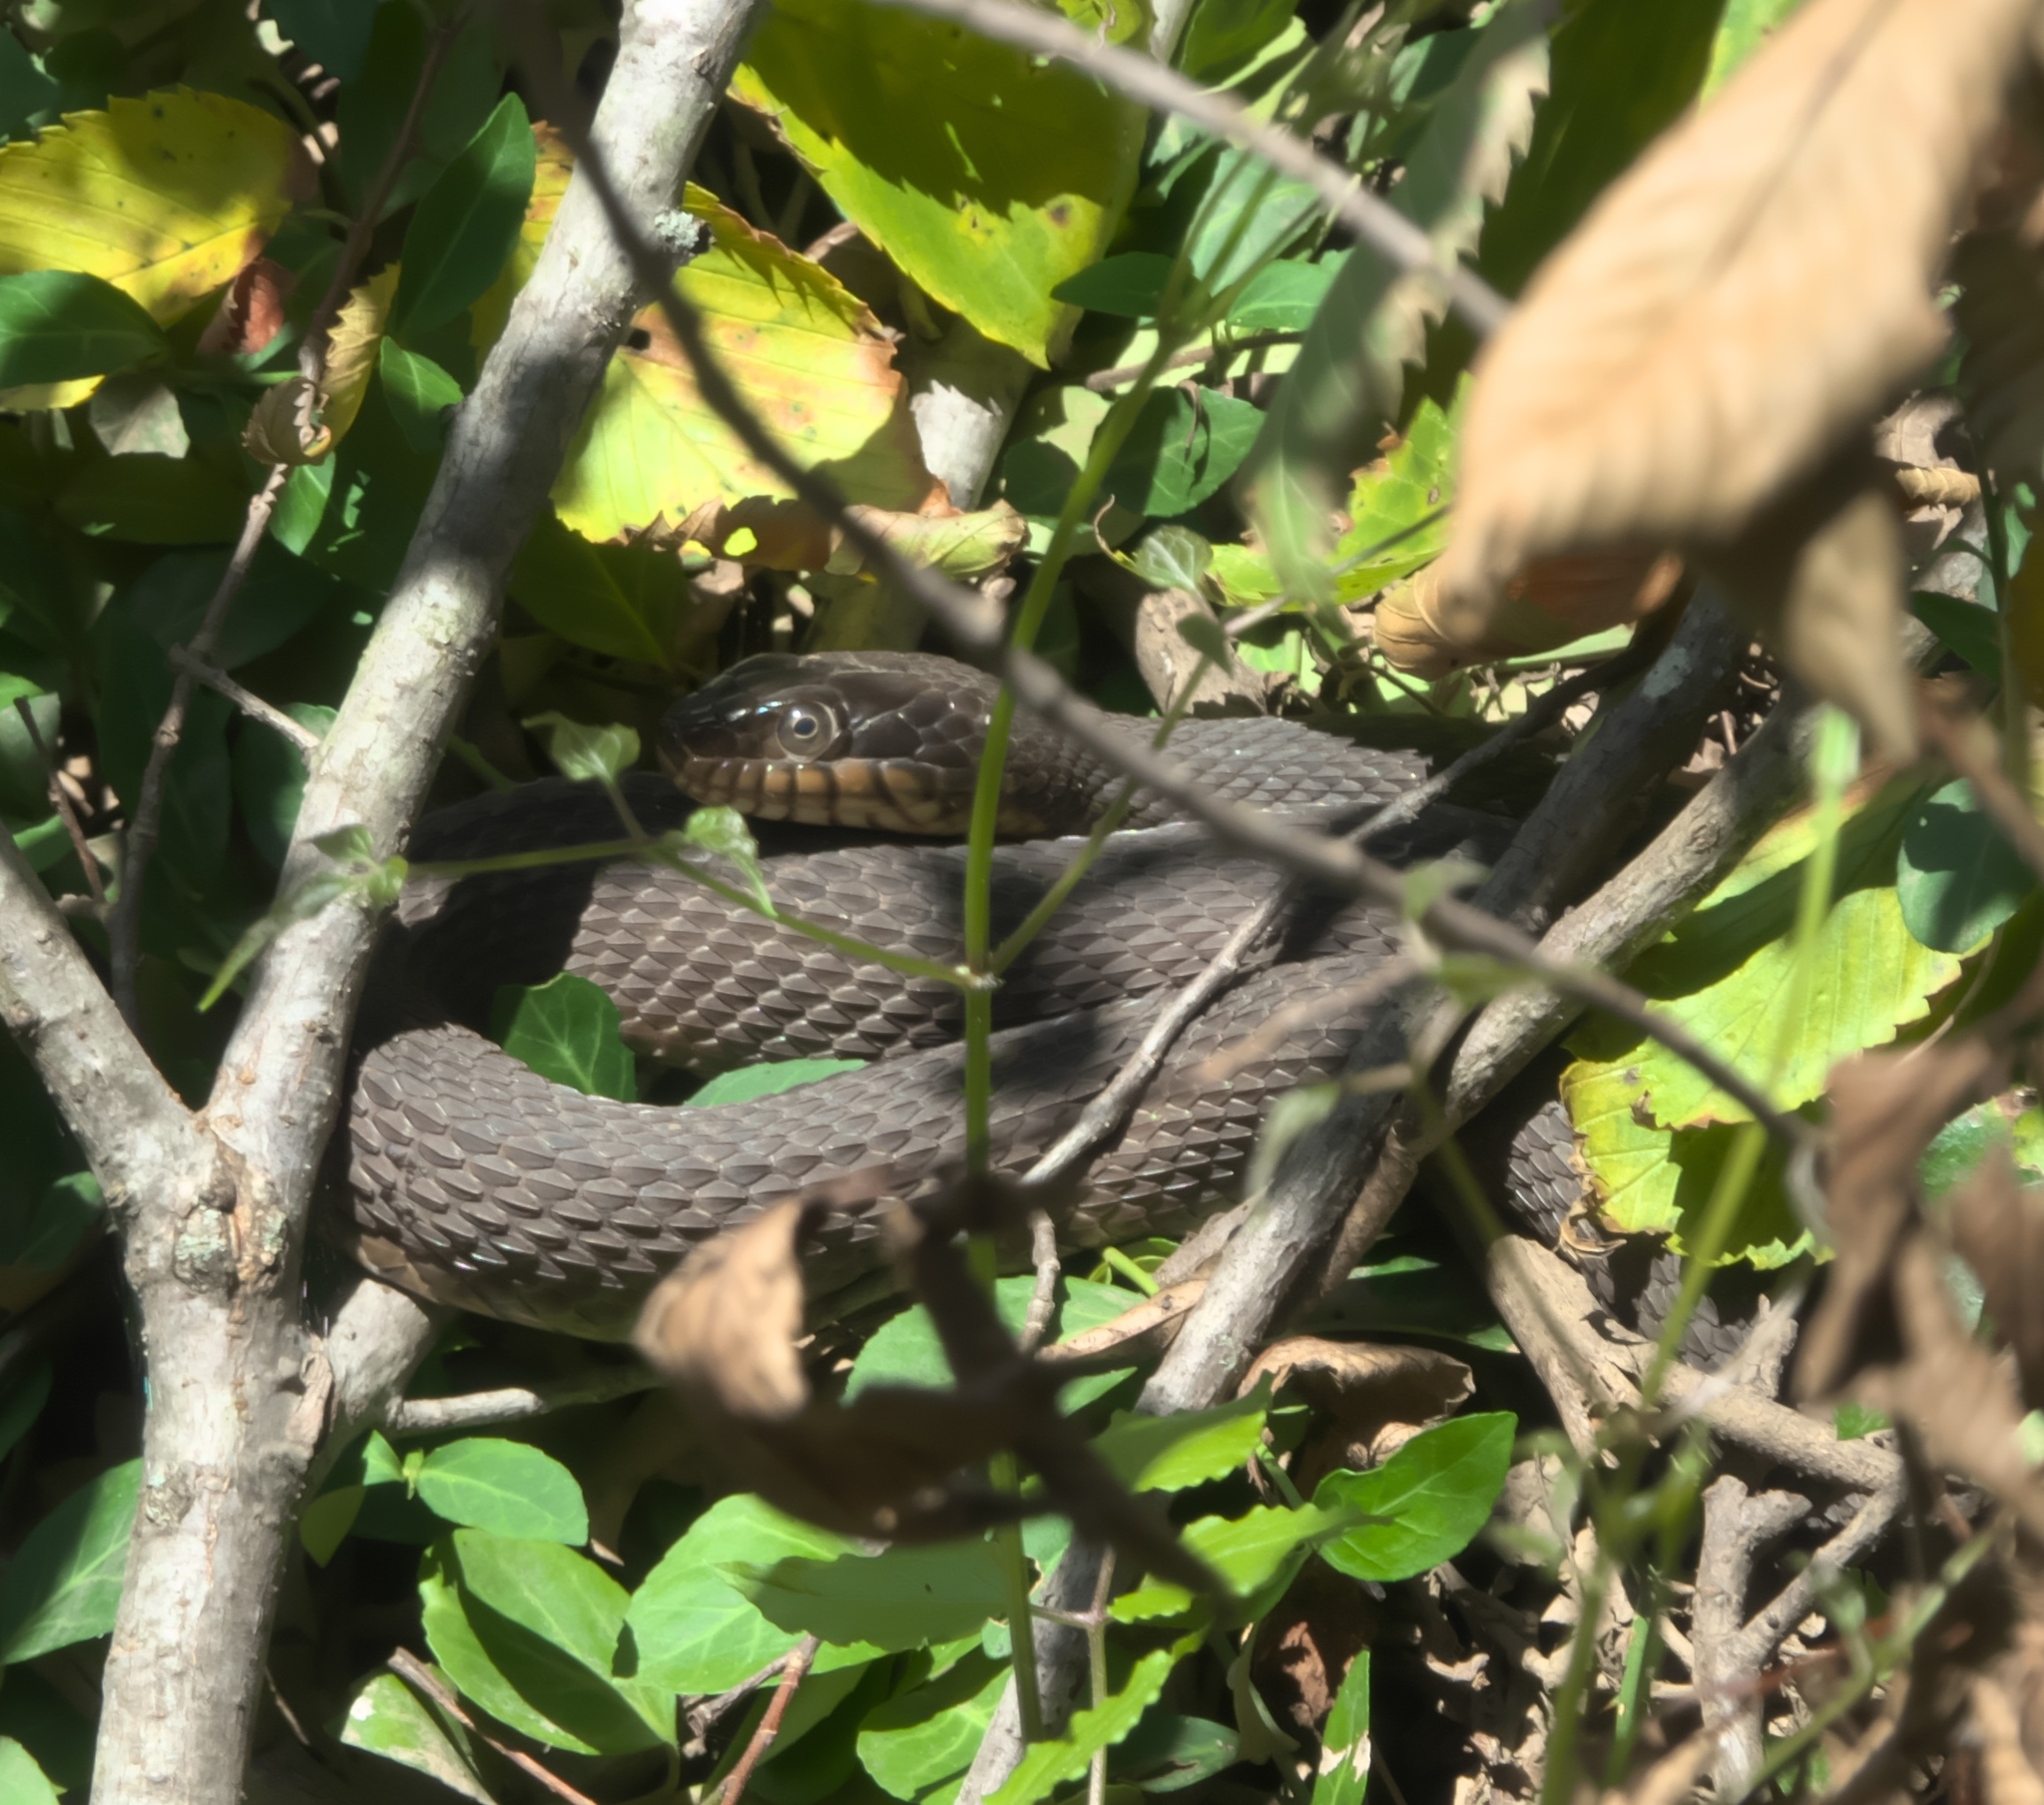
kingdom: Animalia
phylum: Chordata
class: Squamata
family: Colubridae
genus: Nerodia
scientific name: Nerodia erythrogaster
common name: Plainbelly water snake
